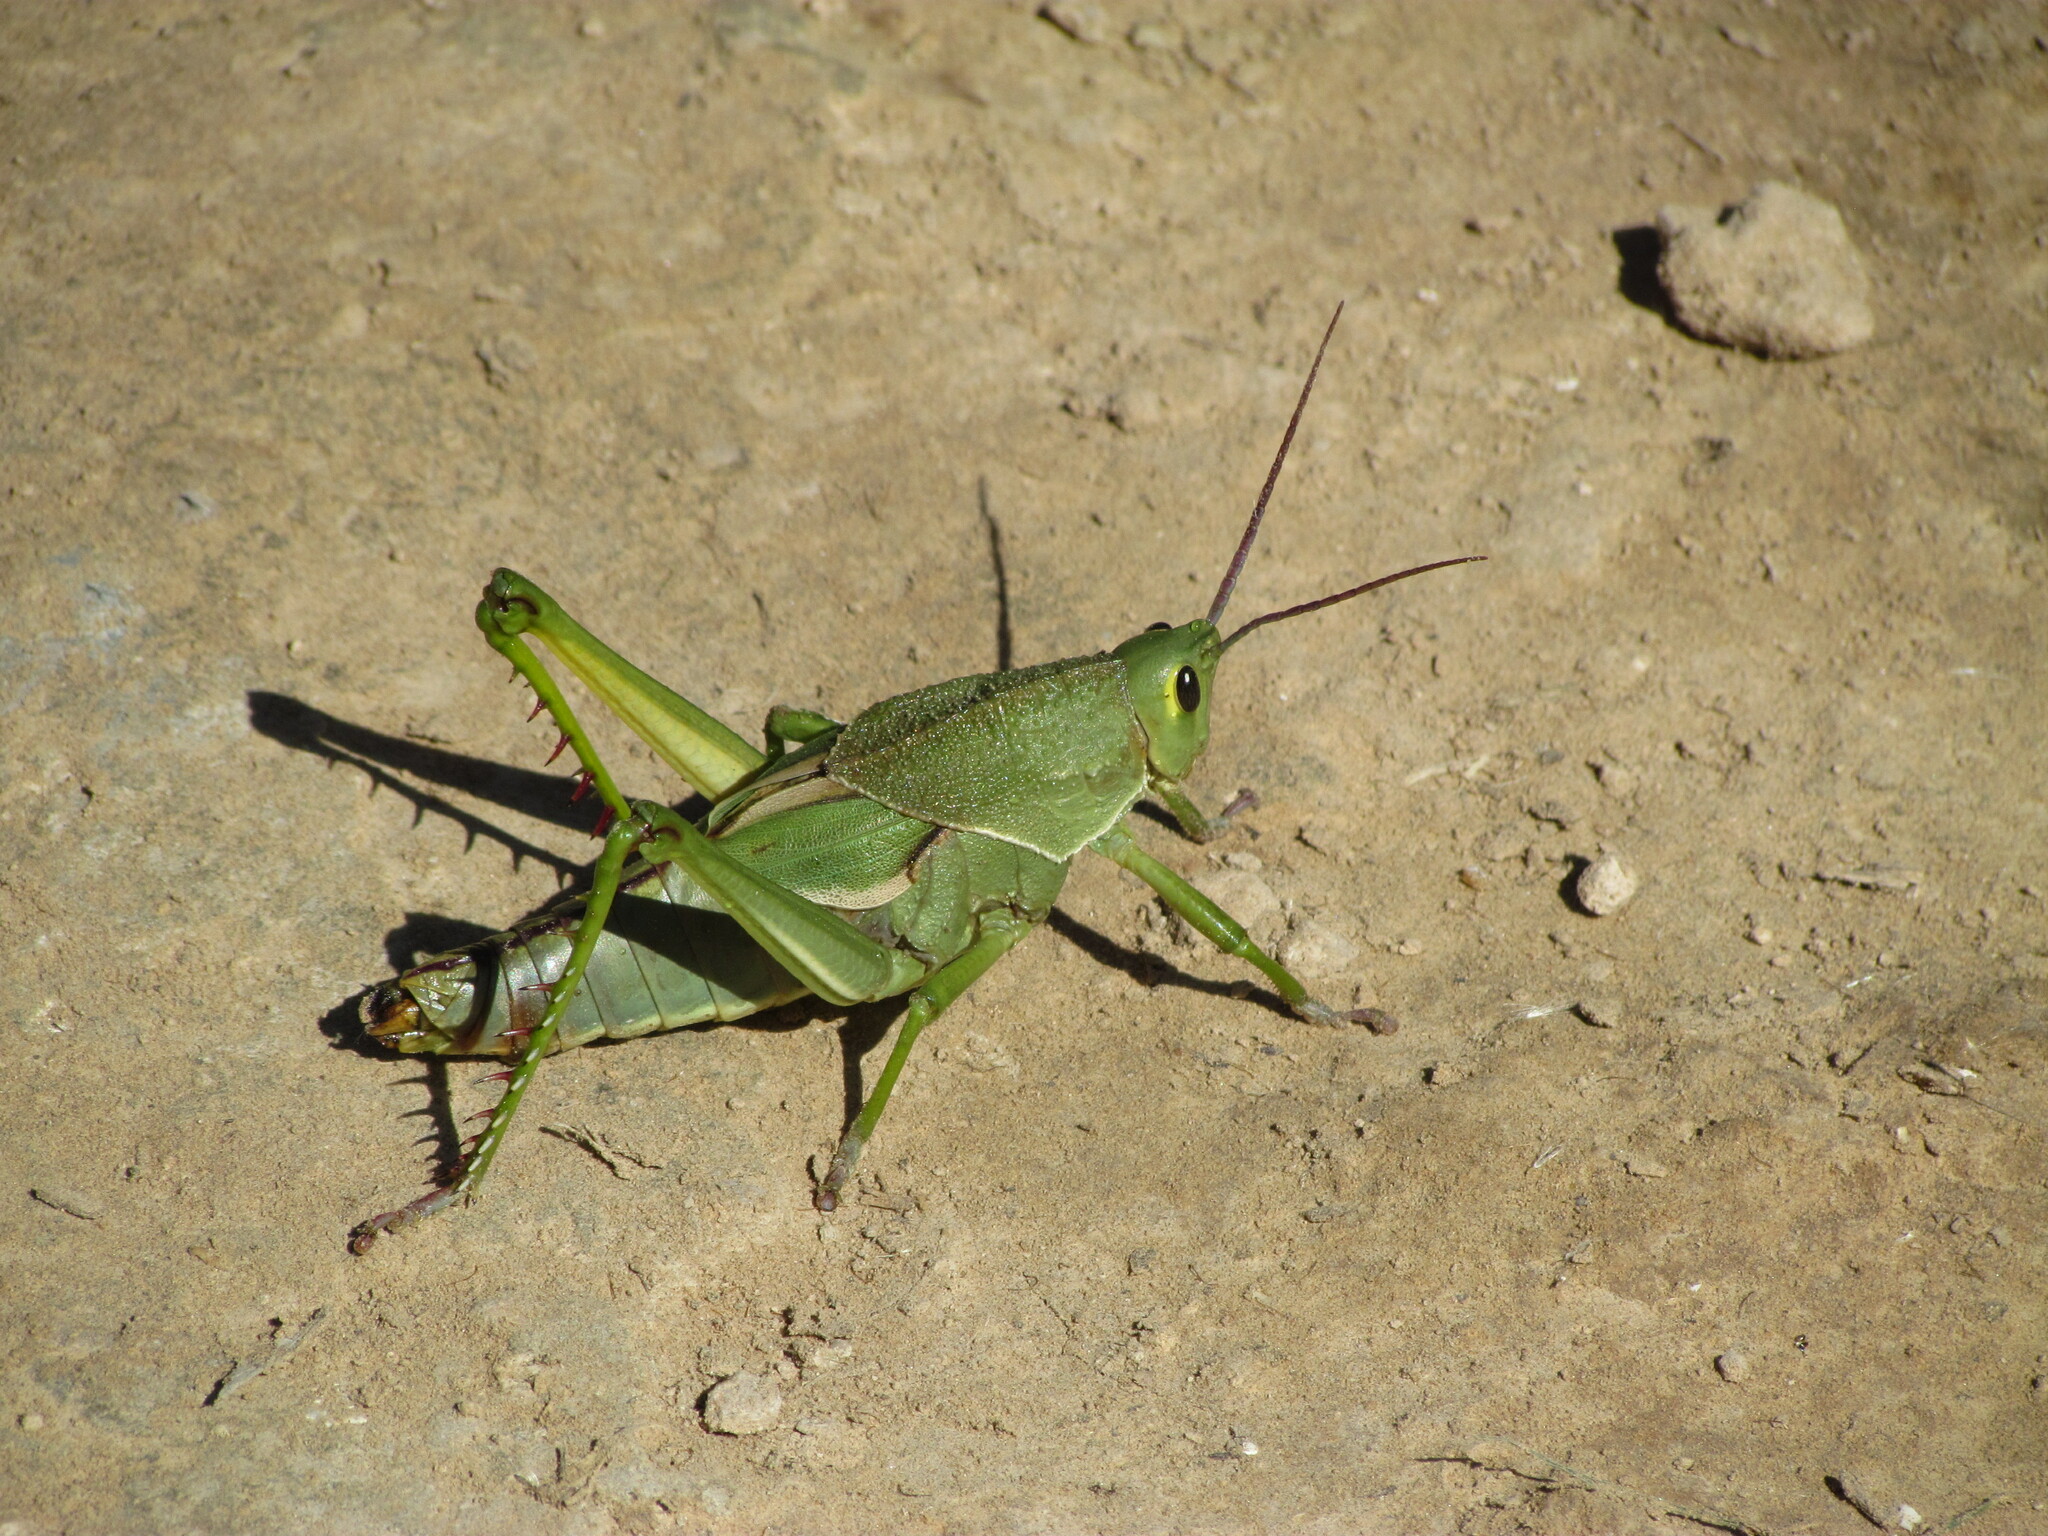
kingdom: Animalia
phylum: Arthropoda
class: Insecta
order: Orthoptera
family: Romaleidae
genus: Staleochlora
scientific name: Staleochlora viridicata
